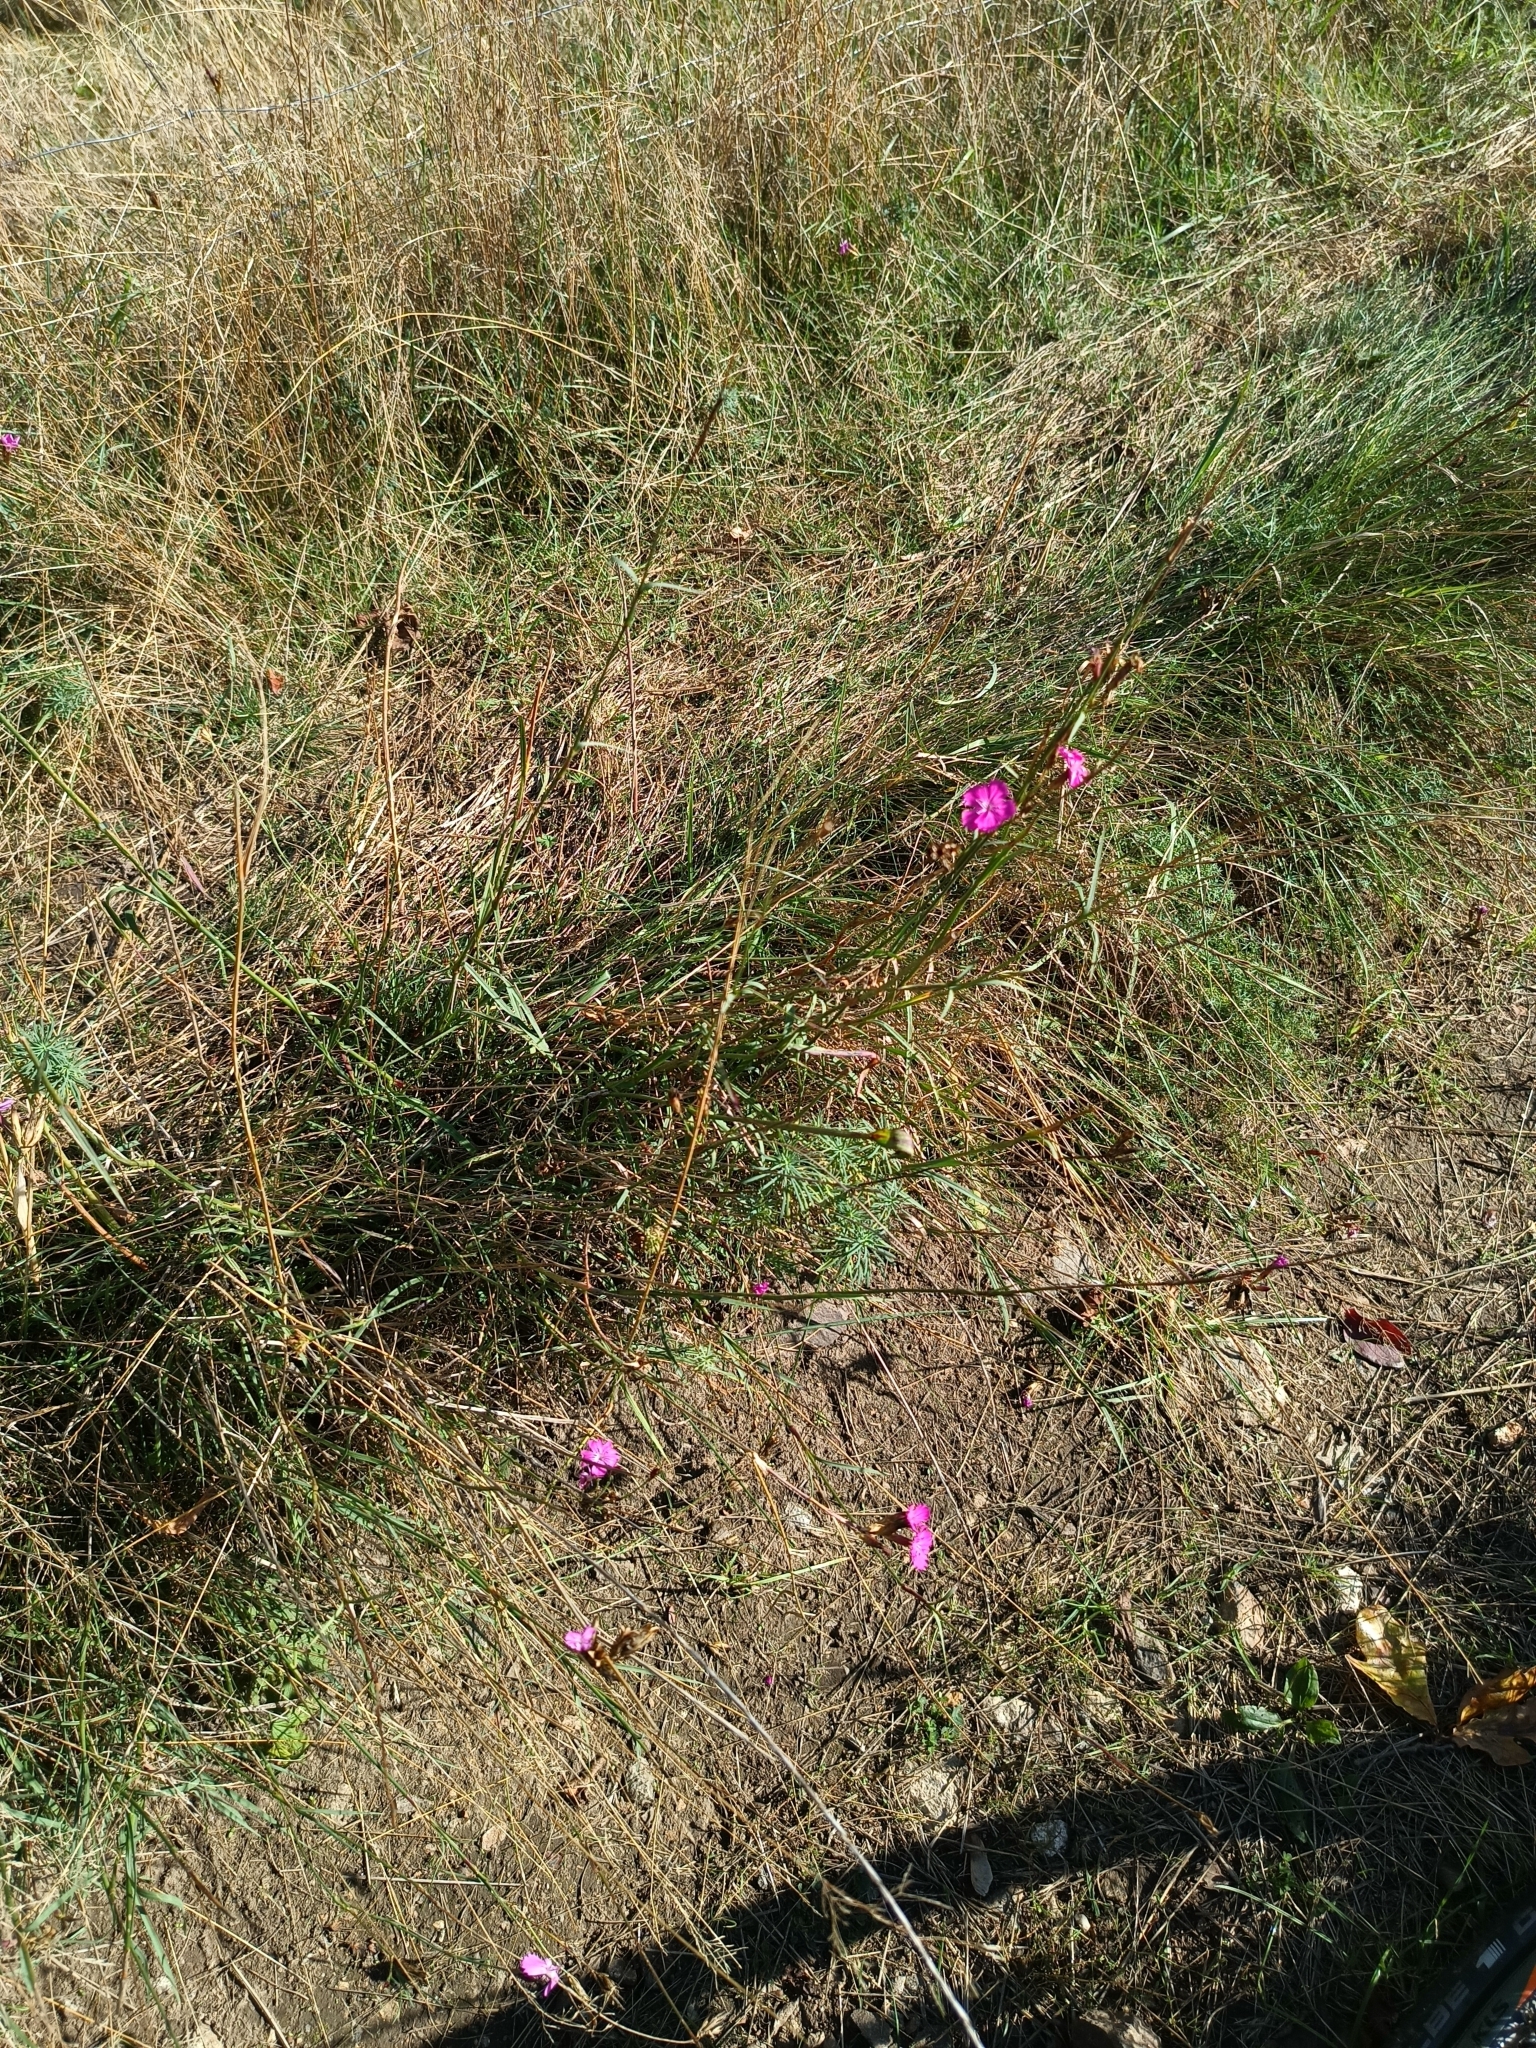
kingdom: Plantae
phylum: Tracheophyta
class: Magnoliopsida
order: Caryophyllales
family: Caryophyllaceae
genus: Dianthus
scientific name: Dianthus carthusianorum
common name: Carthusian pink
